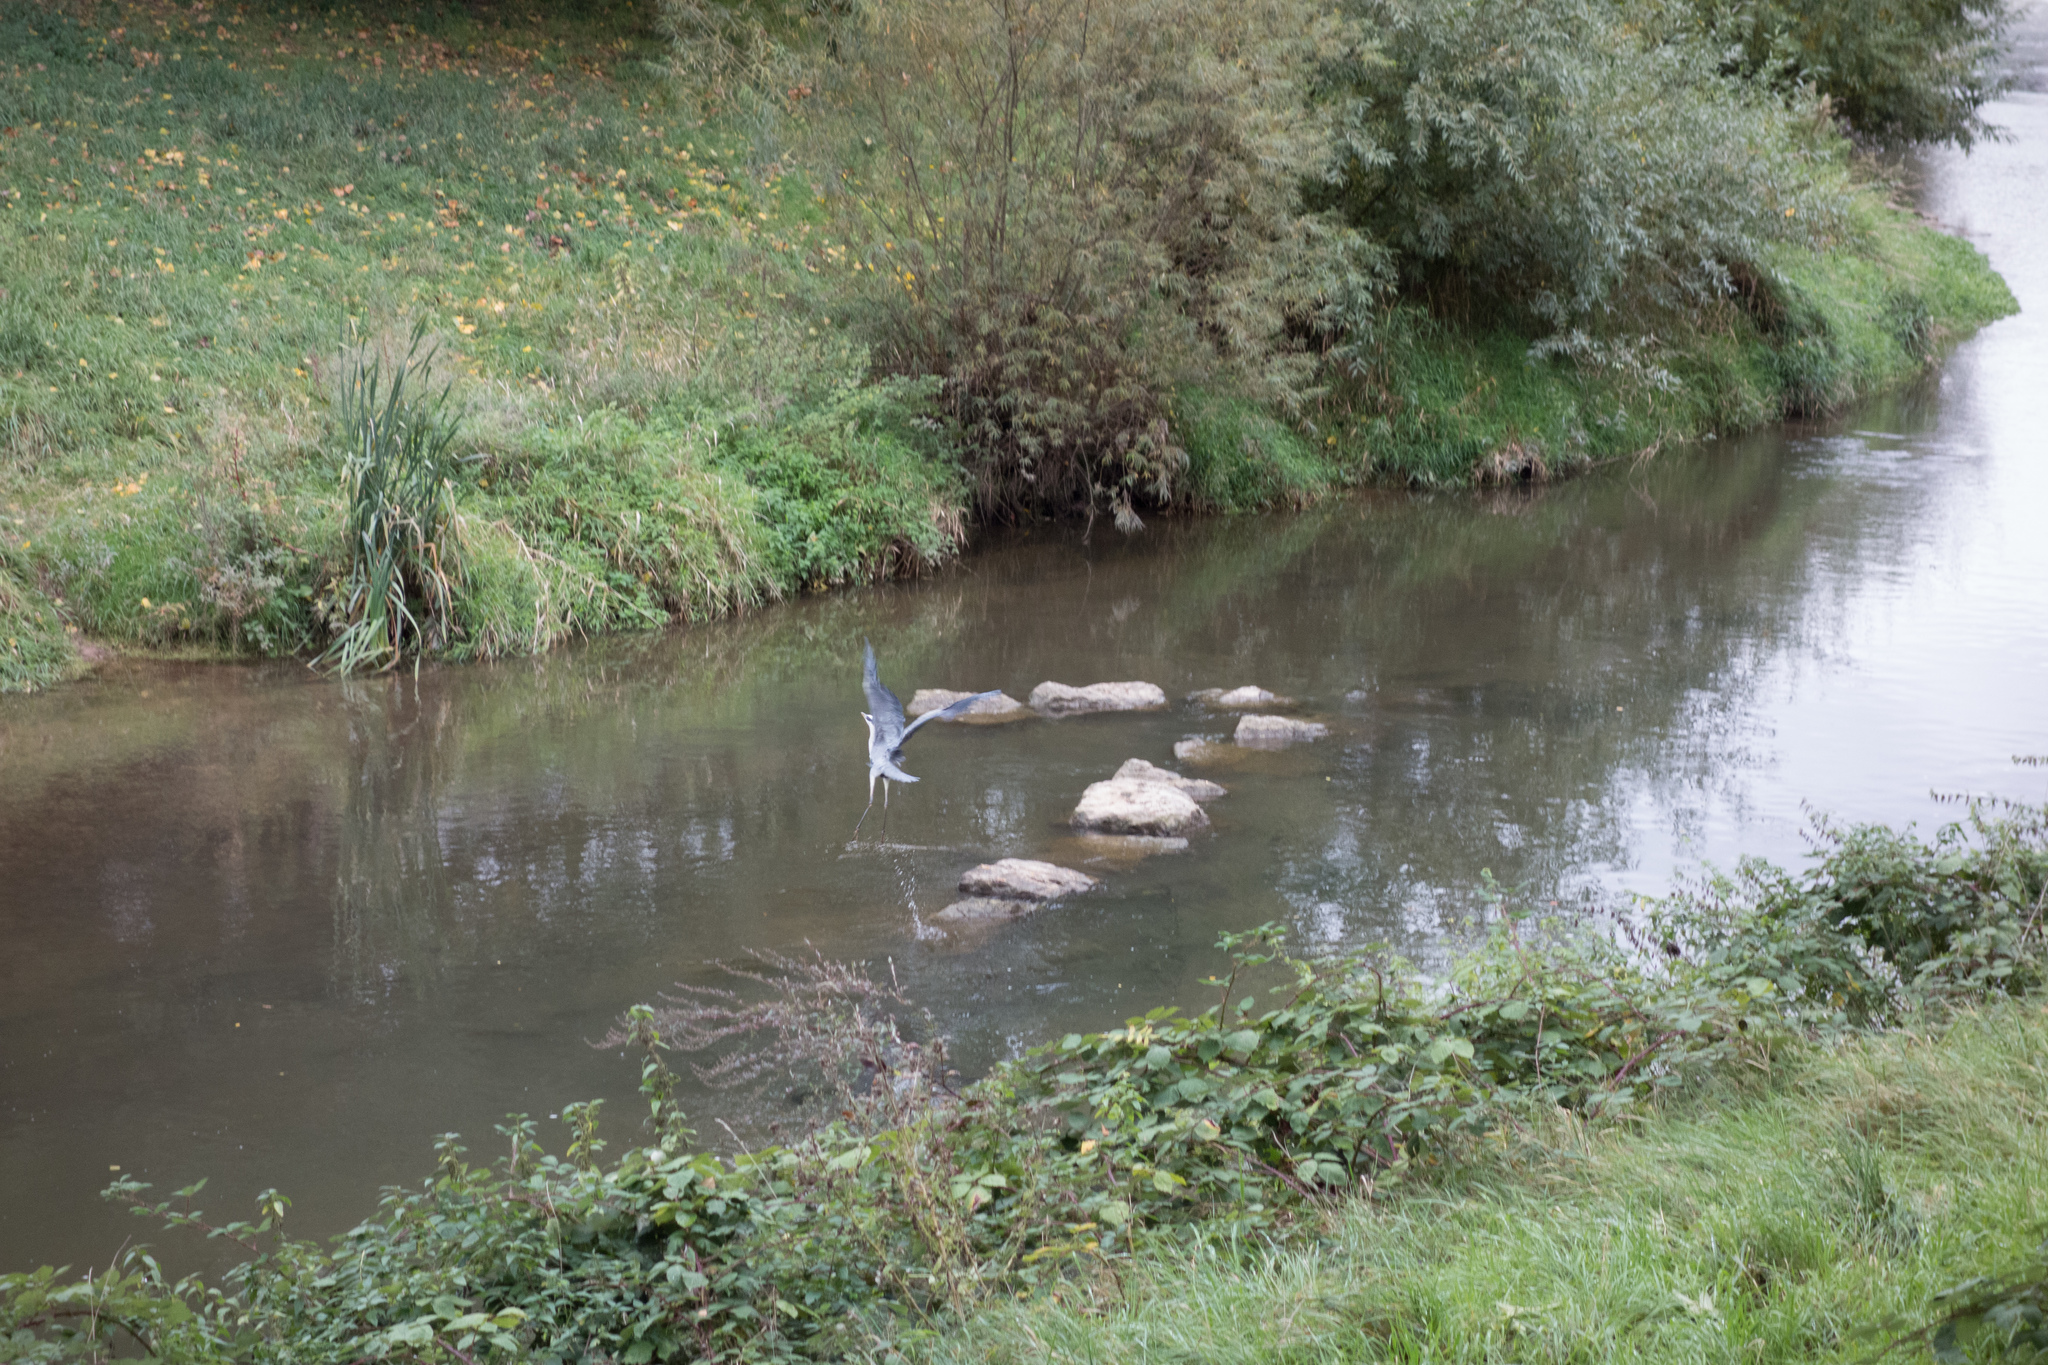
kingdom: Animalia
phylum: Chordata
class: Aves
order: Pelecaniformes
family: Ardeidae
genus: Ardea
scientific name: Ardea cinerea
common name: Grey heron
